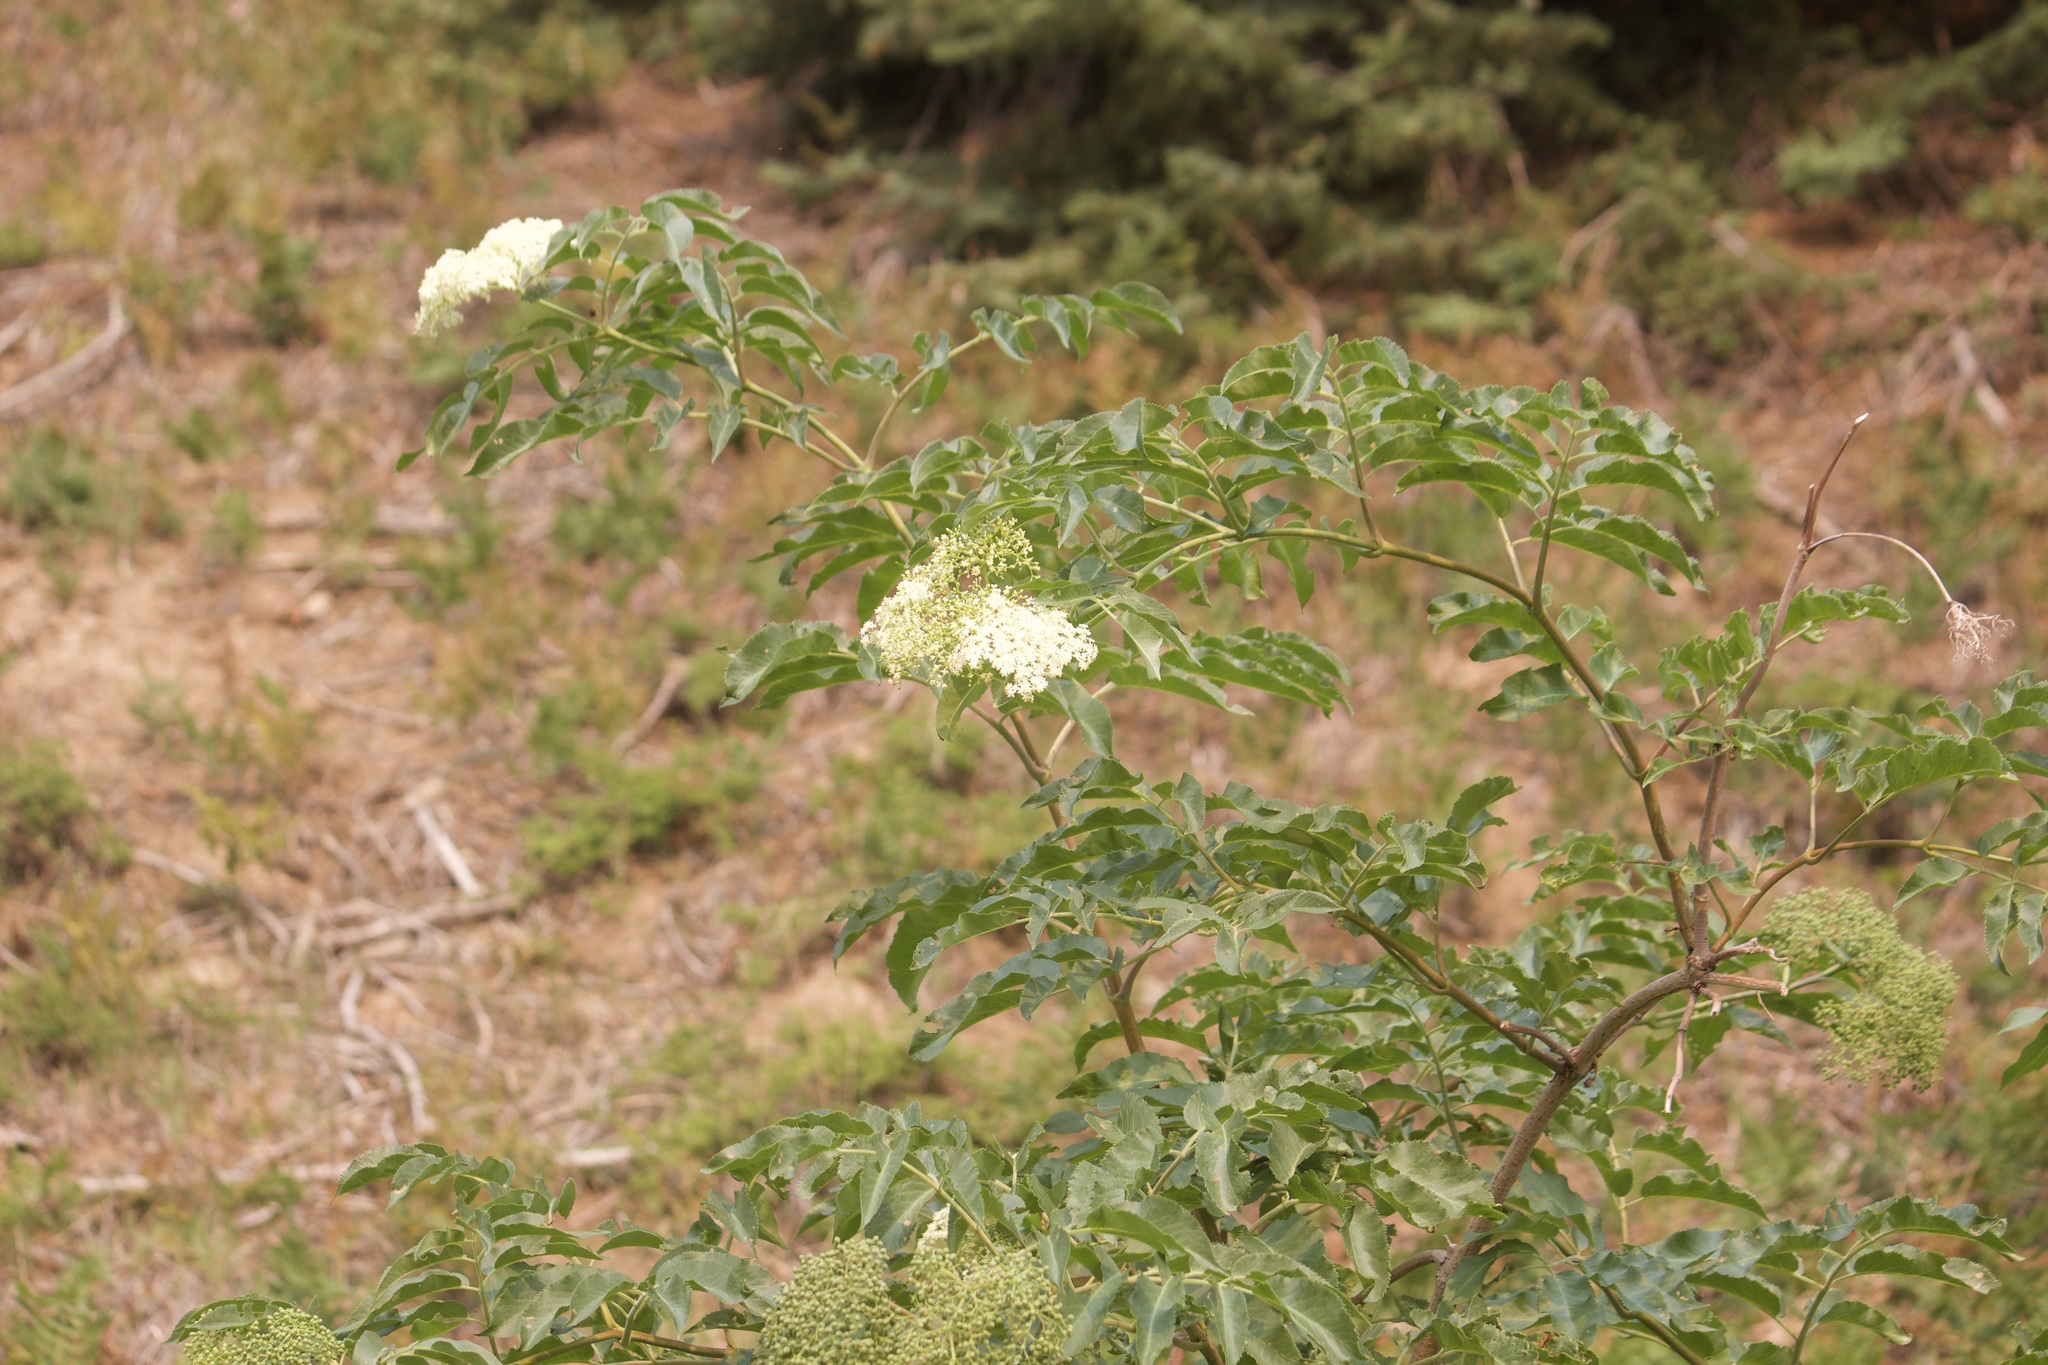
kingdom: Plantae
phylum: Tracheophyta
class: Magnoliopsida
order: Dipsacales
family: Viburnaceae
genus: Sambucus
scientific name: Sambucus cerulea
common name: Blue elder
